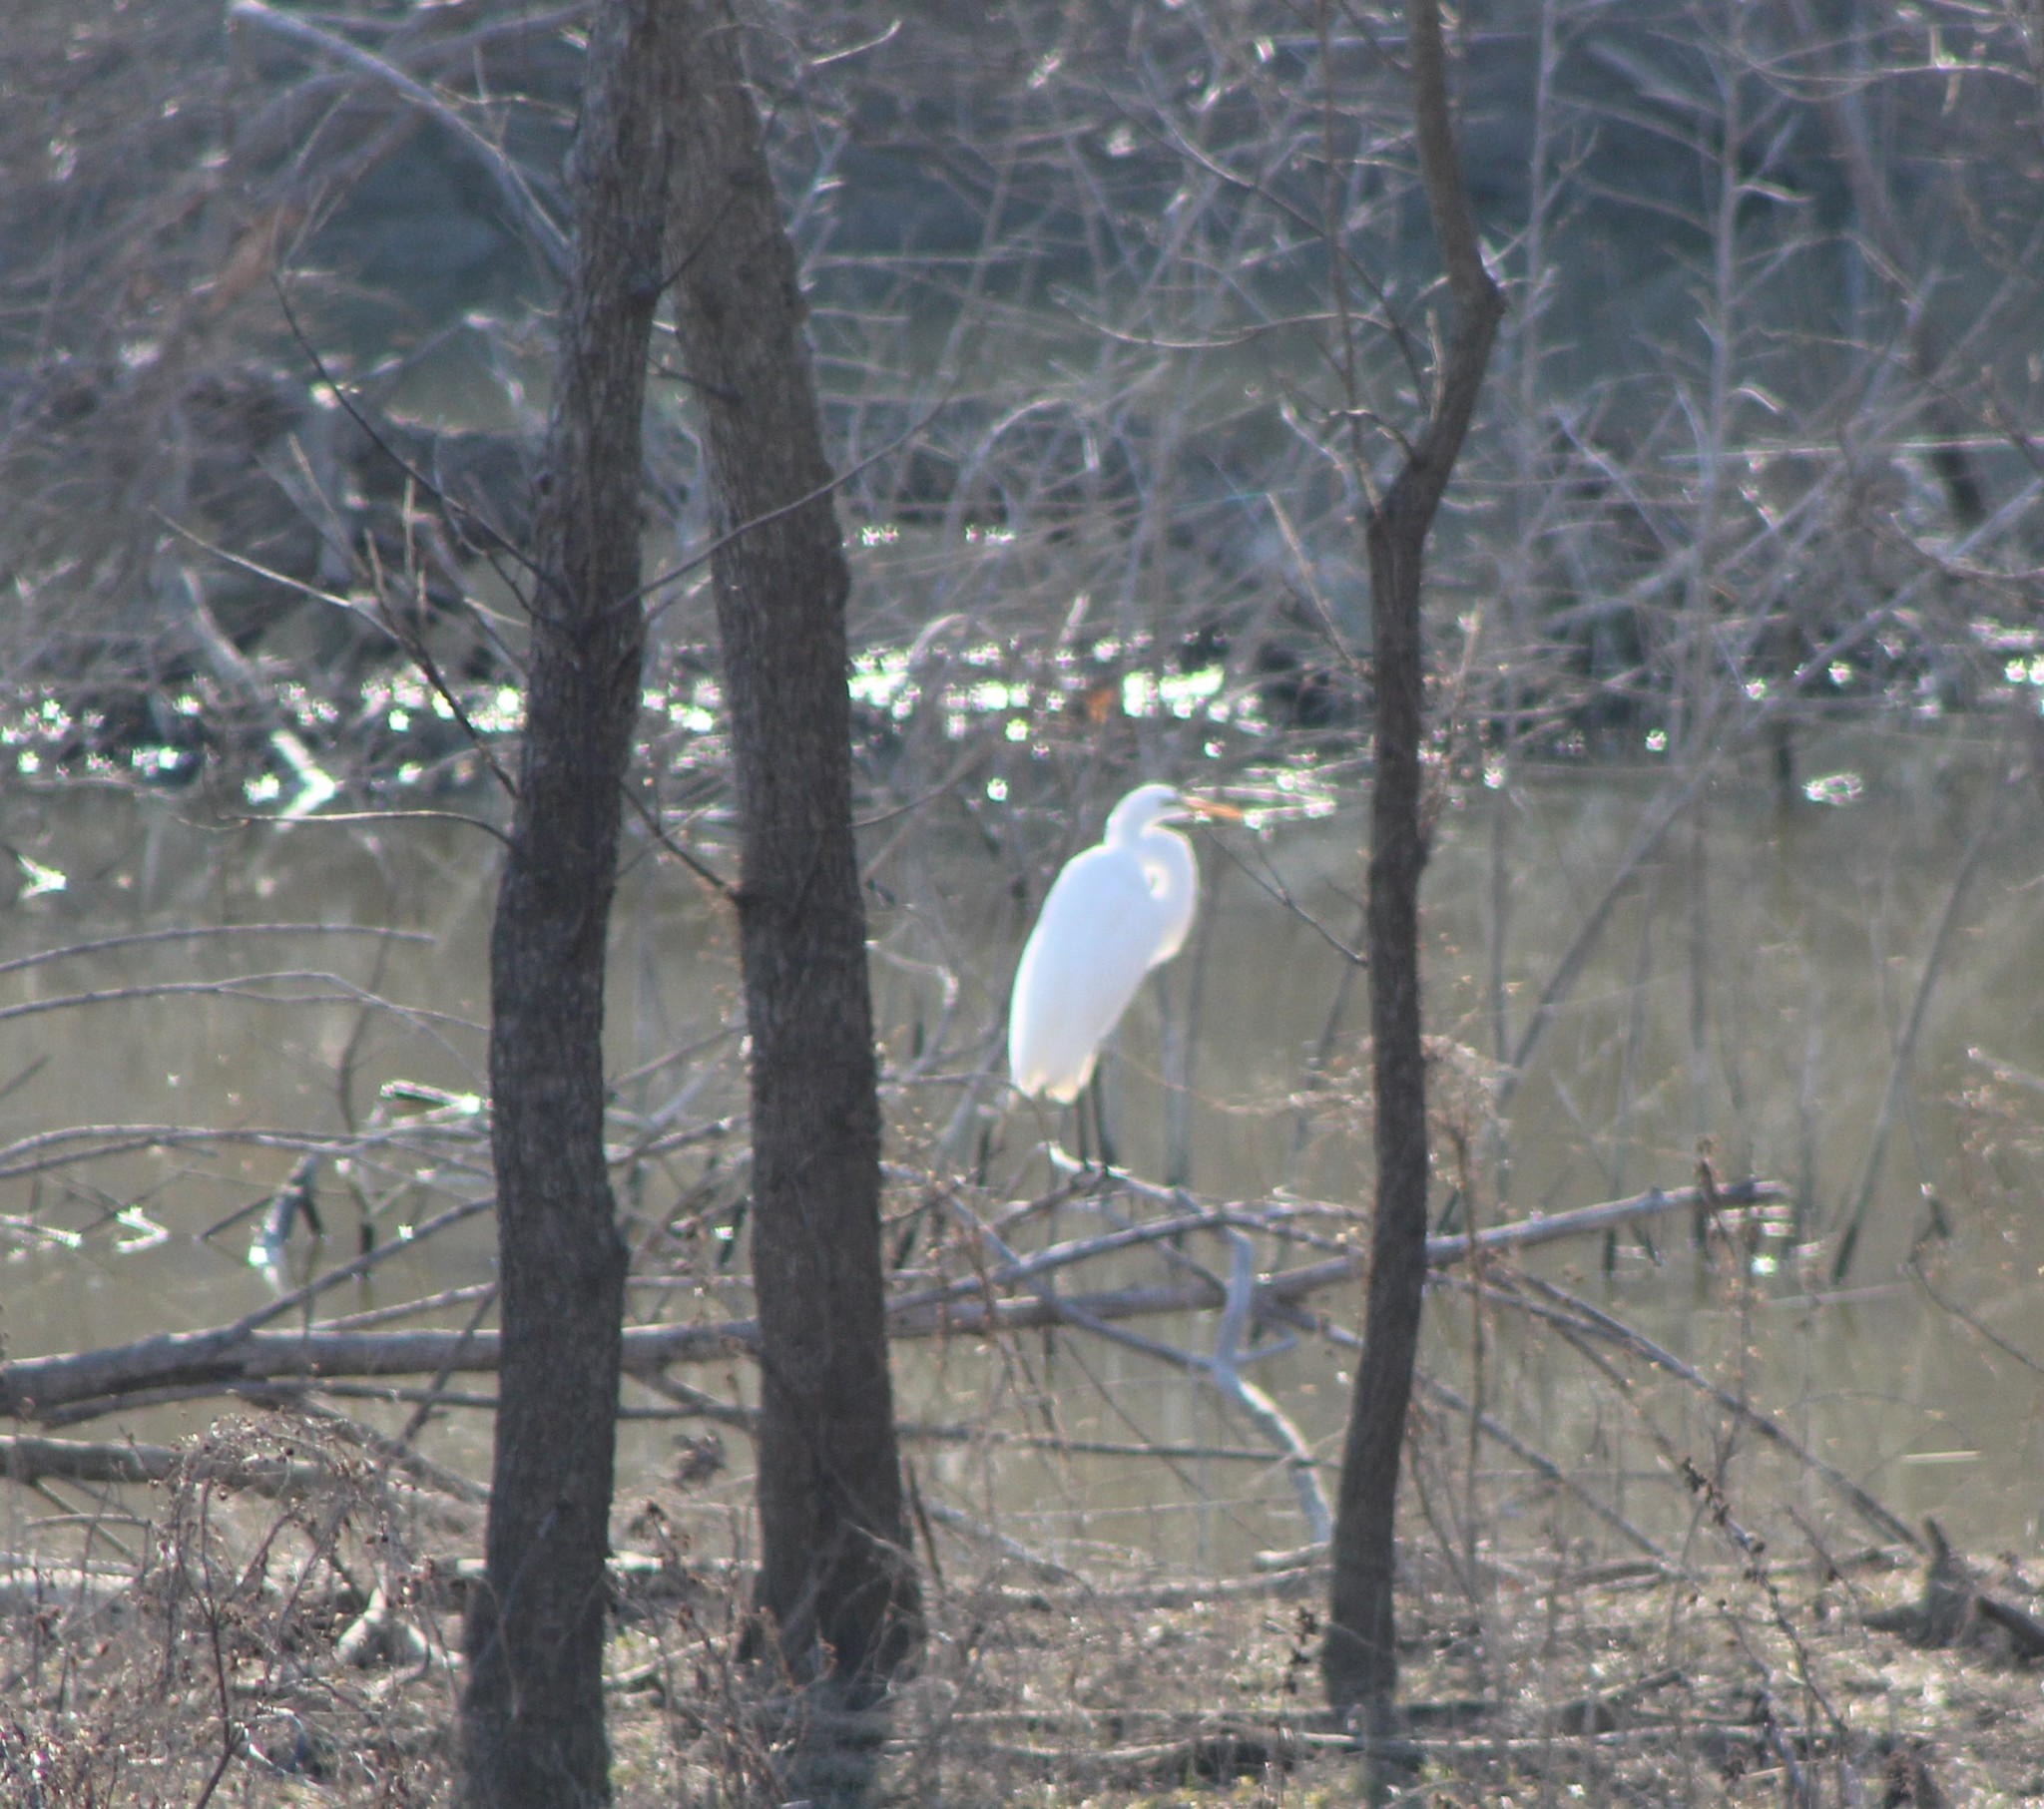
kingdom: Animalia
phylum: Chordata
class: Aves
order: Pelecaniformes
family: Ardeidae
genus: Ardea
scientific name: Ardea alba
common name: Great egret
